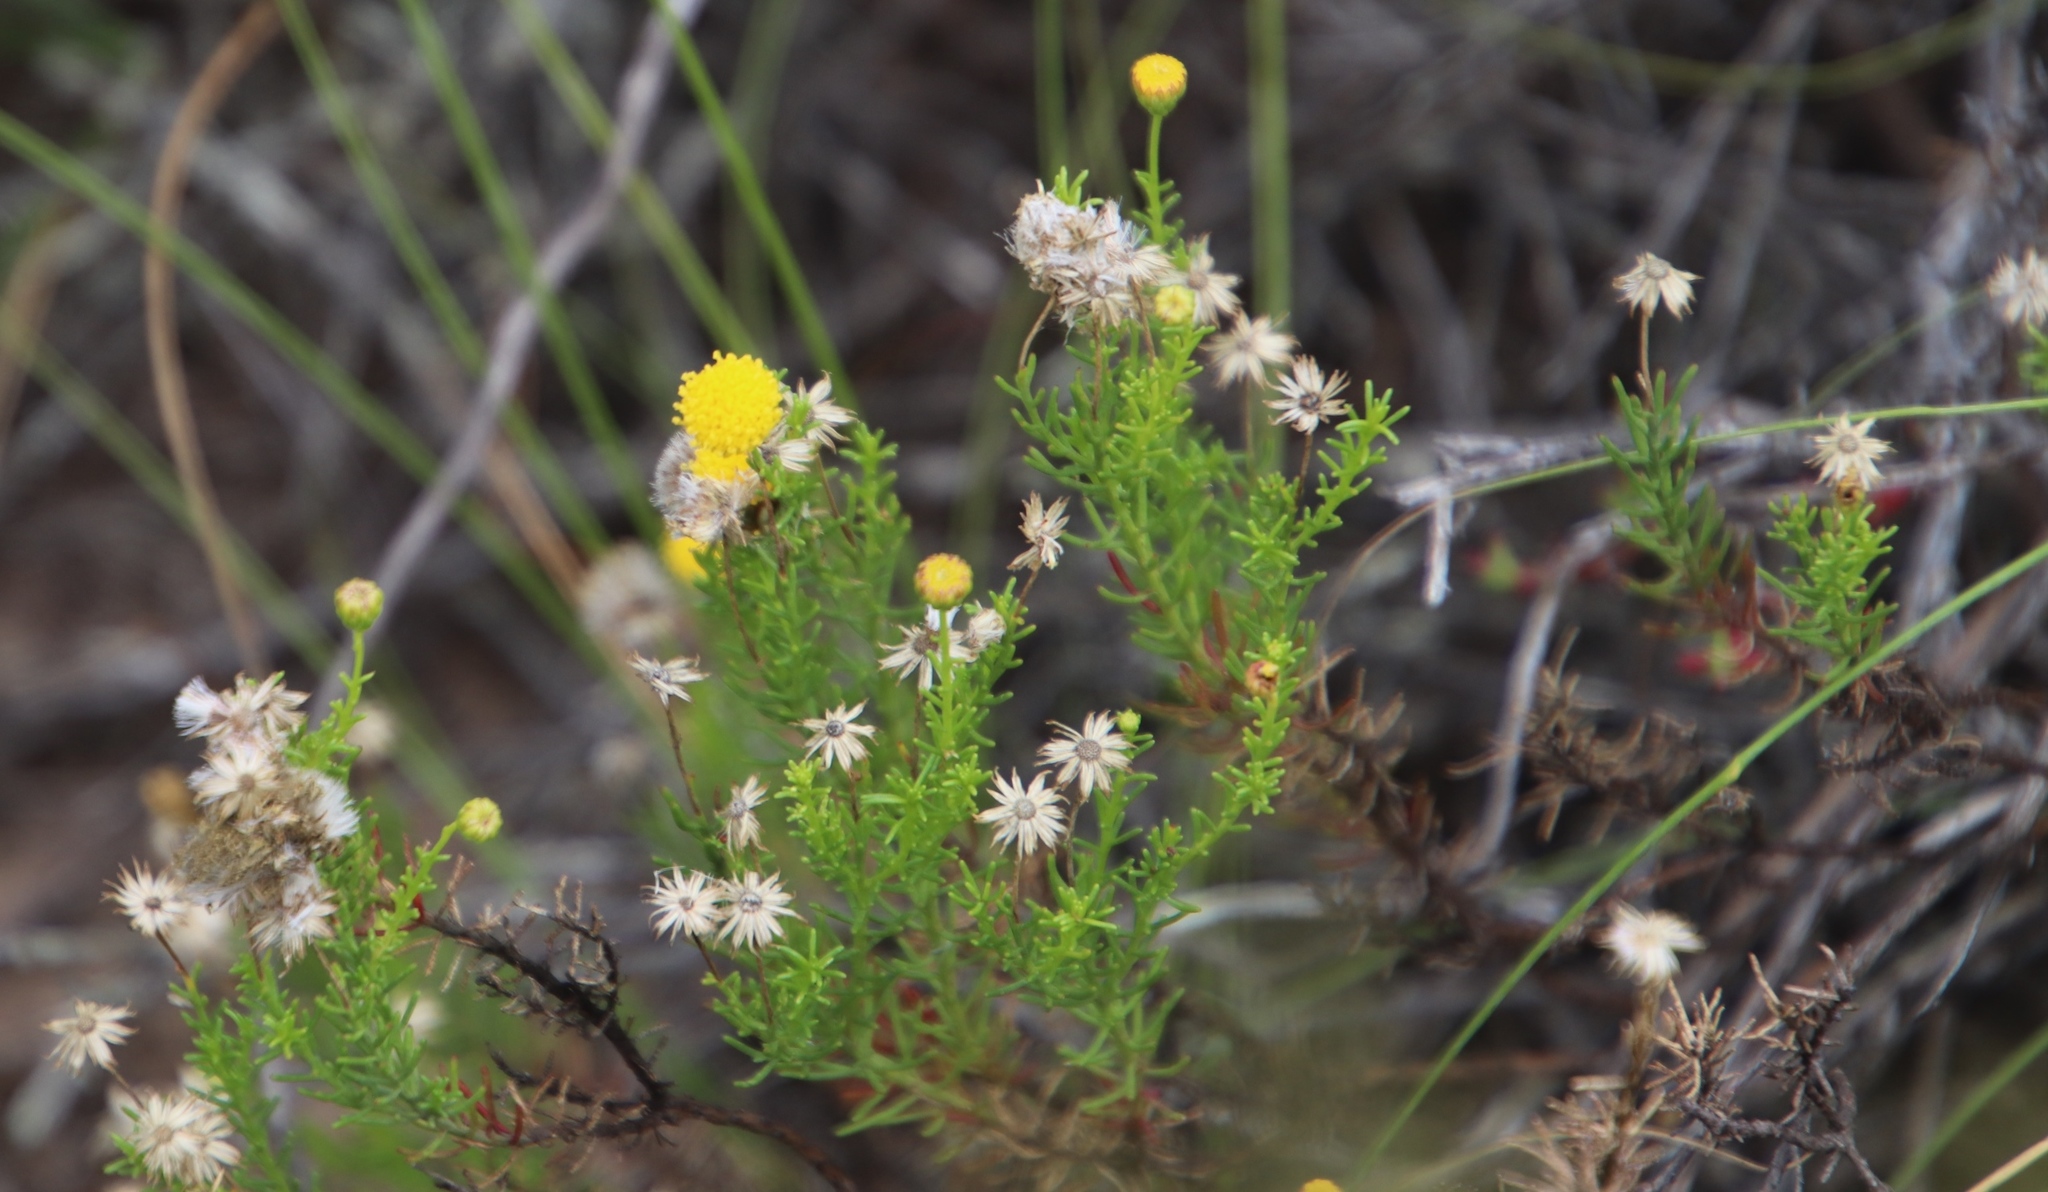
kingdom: Plantae
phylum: Tracheophyta
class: Magnoliopsida
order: Asterales
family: Asteraceae
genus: Chrysocoma
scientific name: Chrysocoma ciliata
